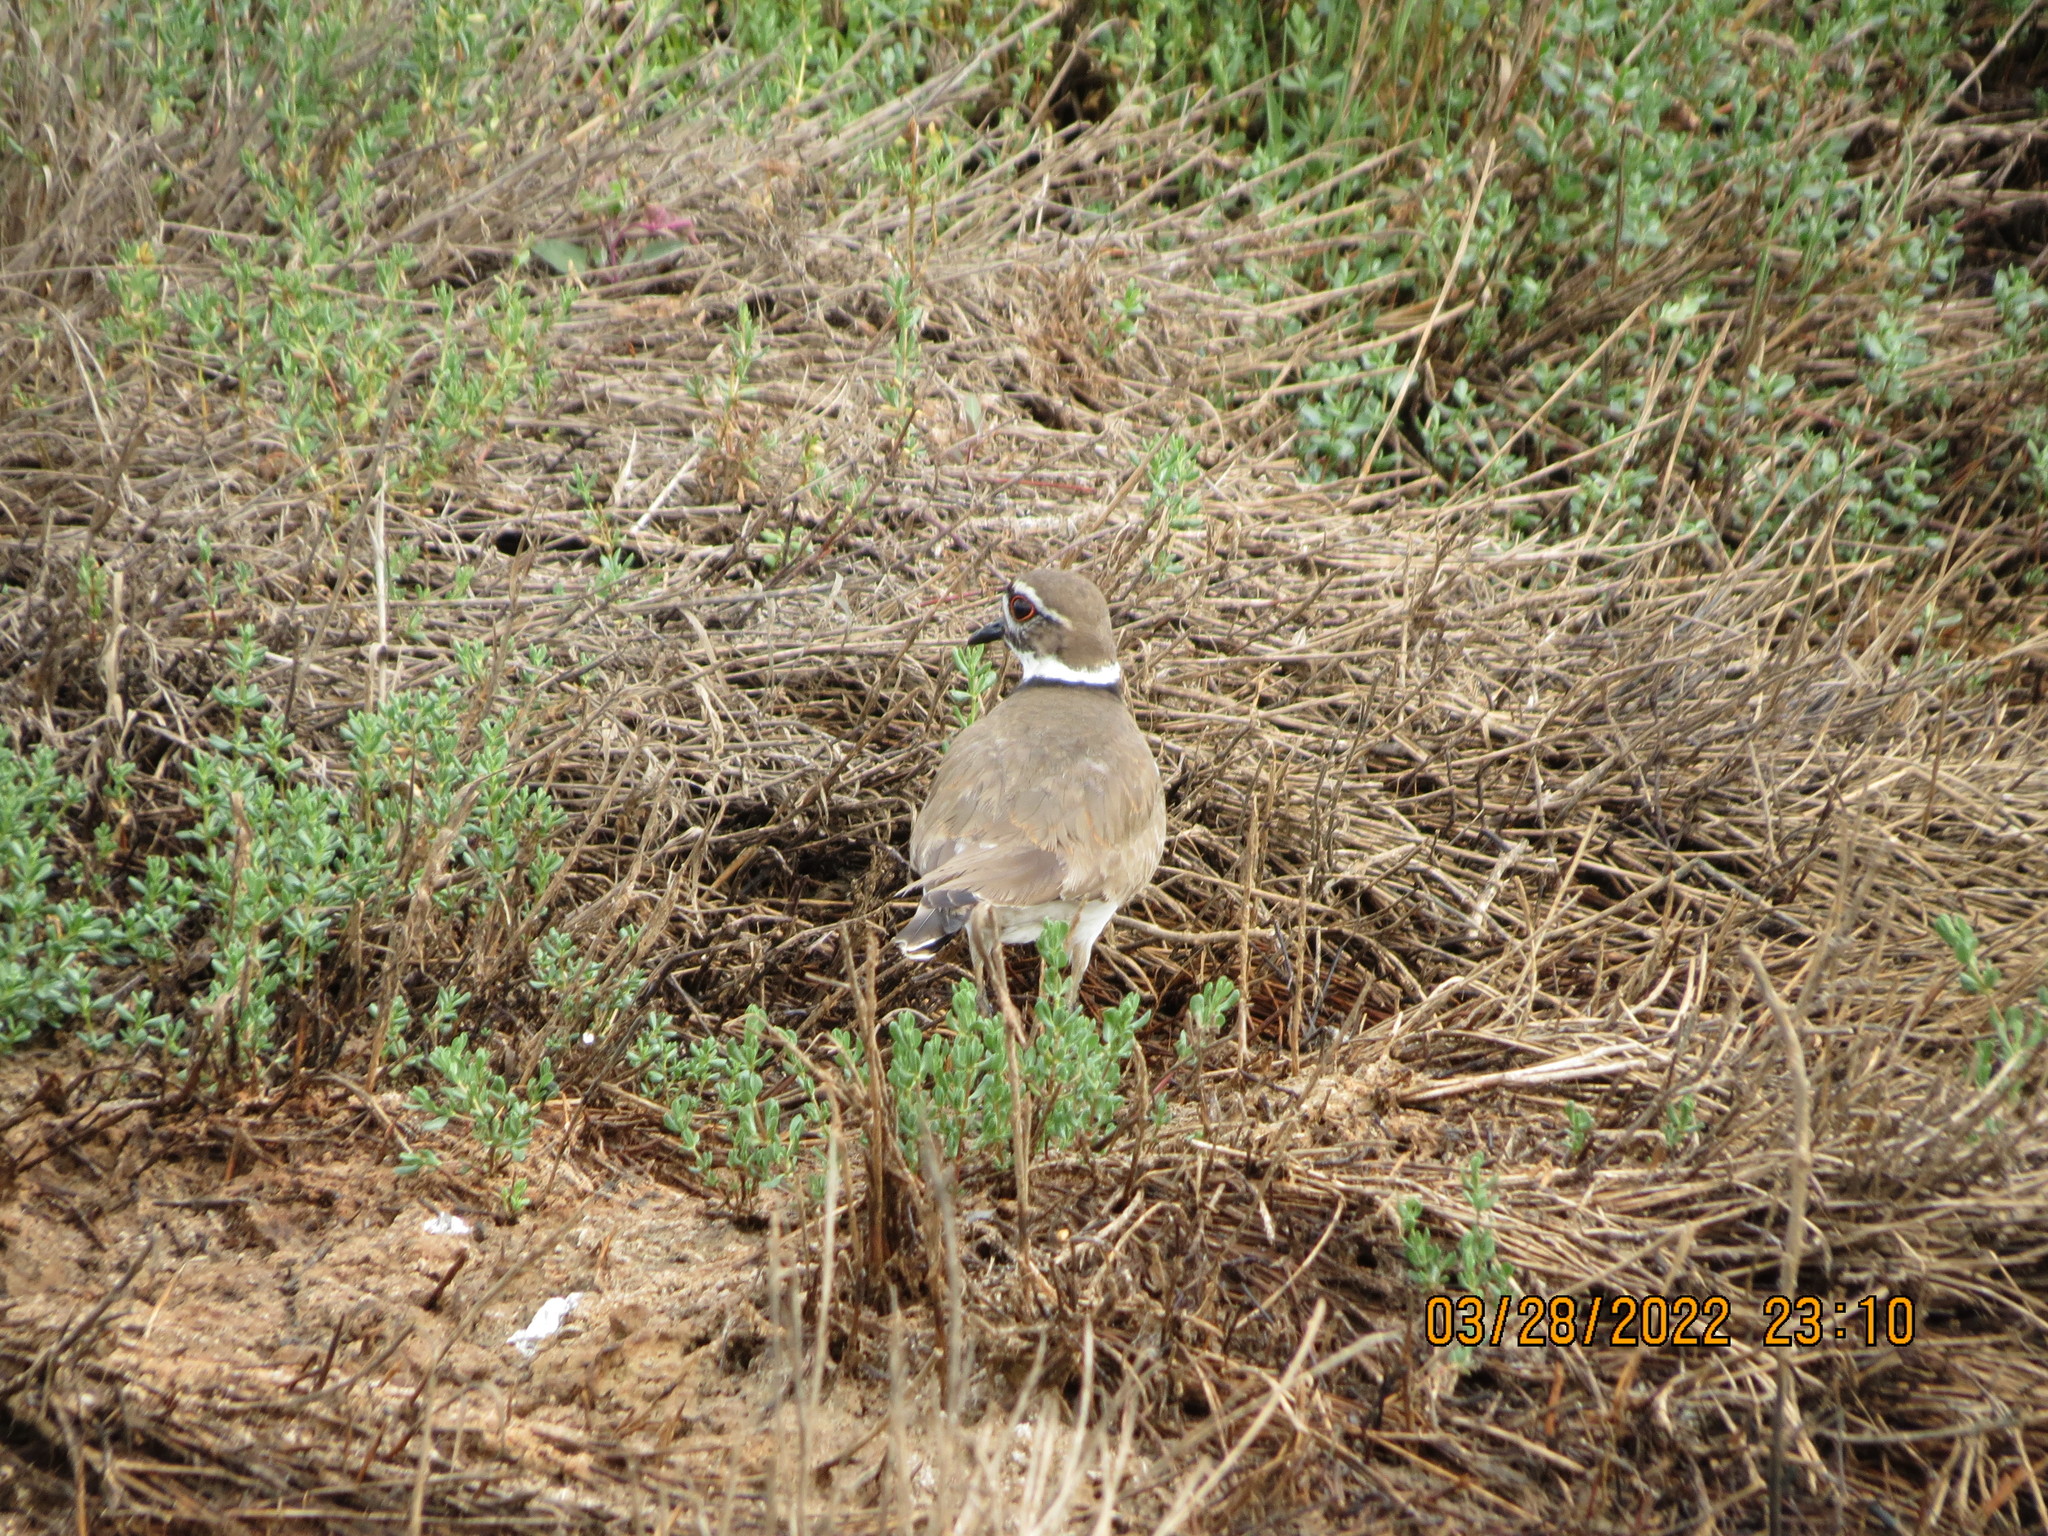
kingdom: Animalia
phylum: Chordata
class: Aves
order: Charadriiformes
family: Charadriidae
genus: Charadrius
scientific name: Charadrius vociferus
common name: Killdeer
